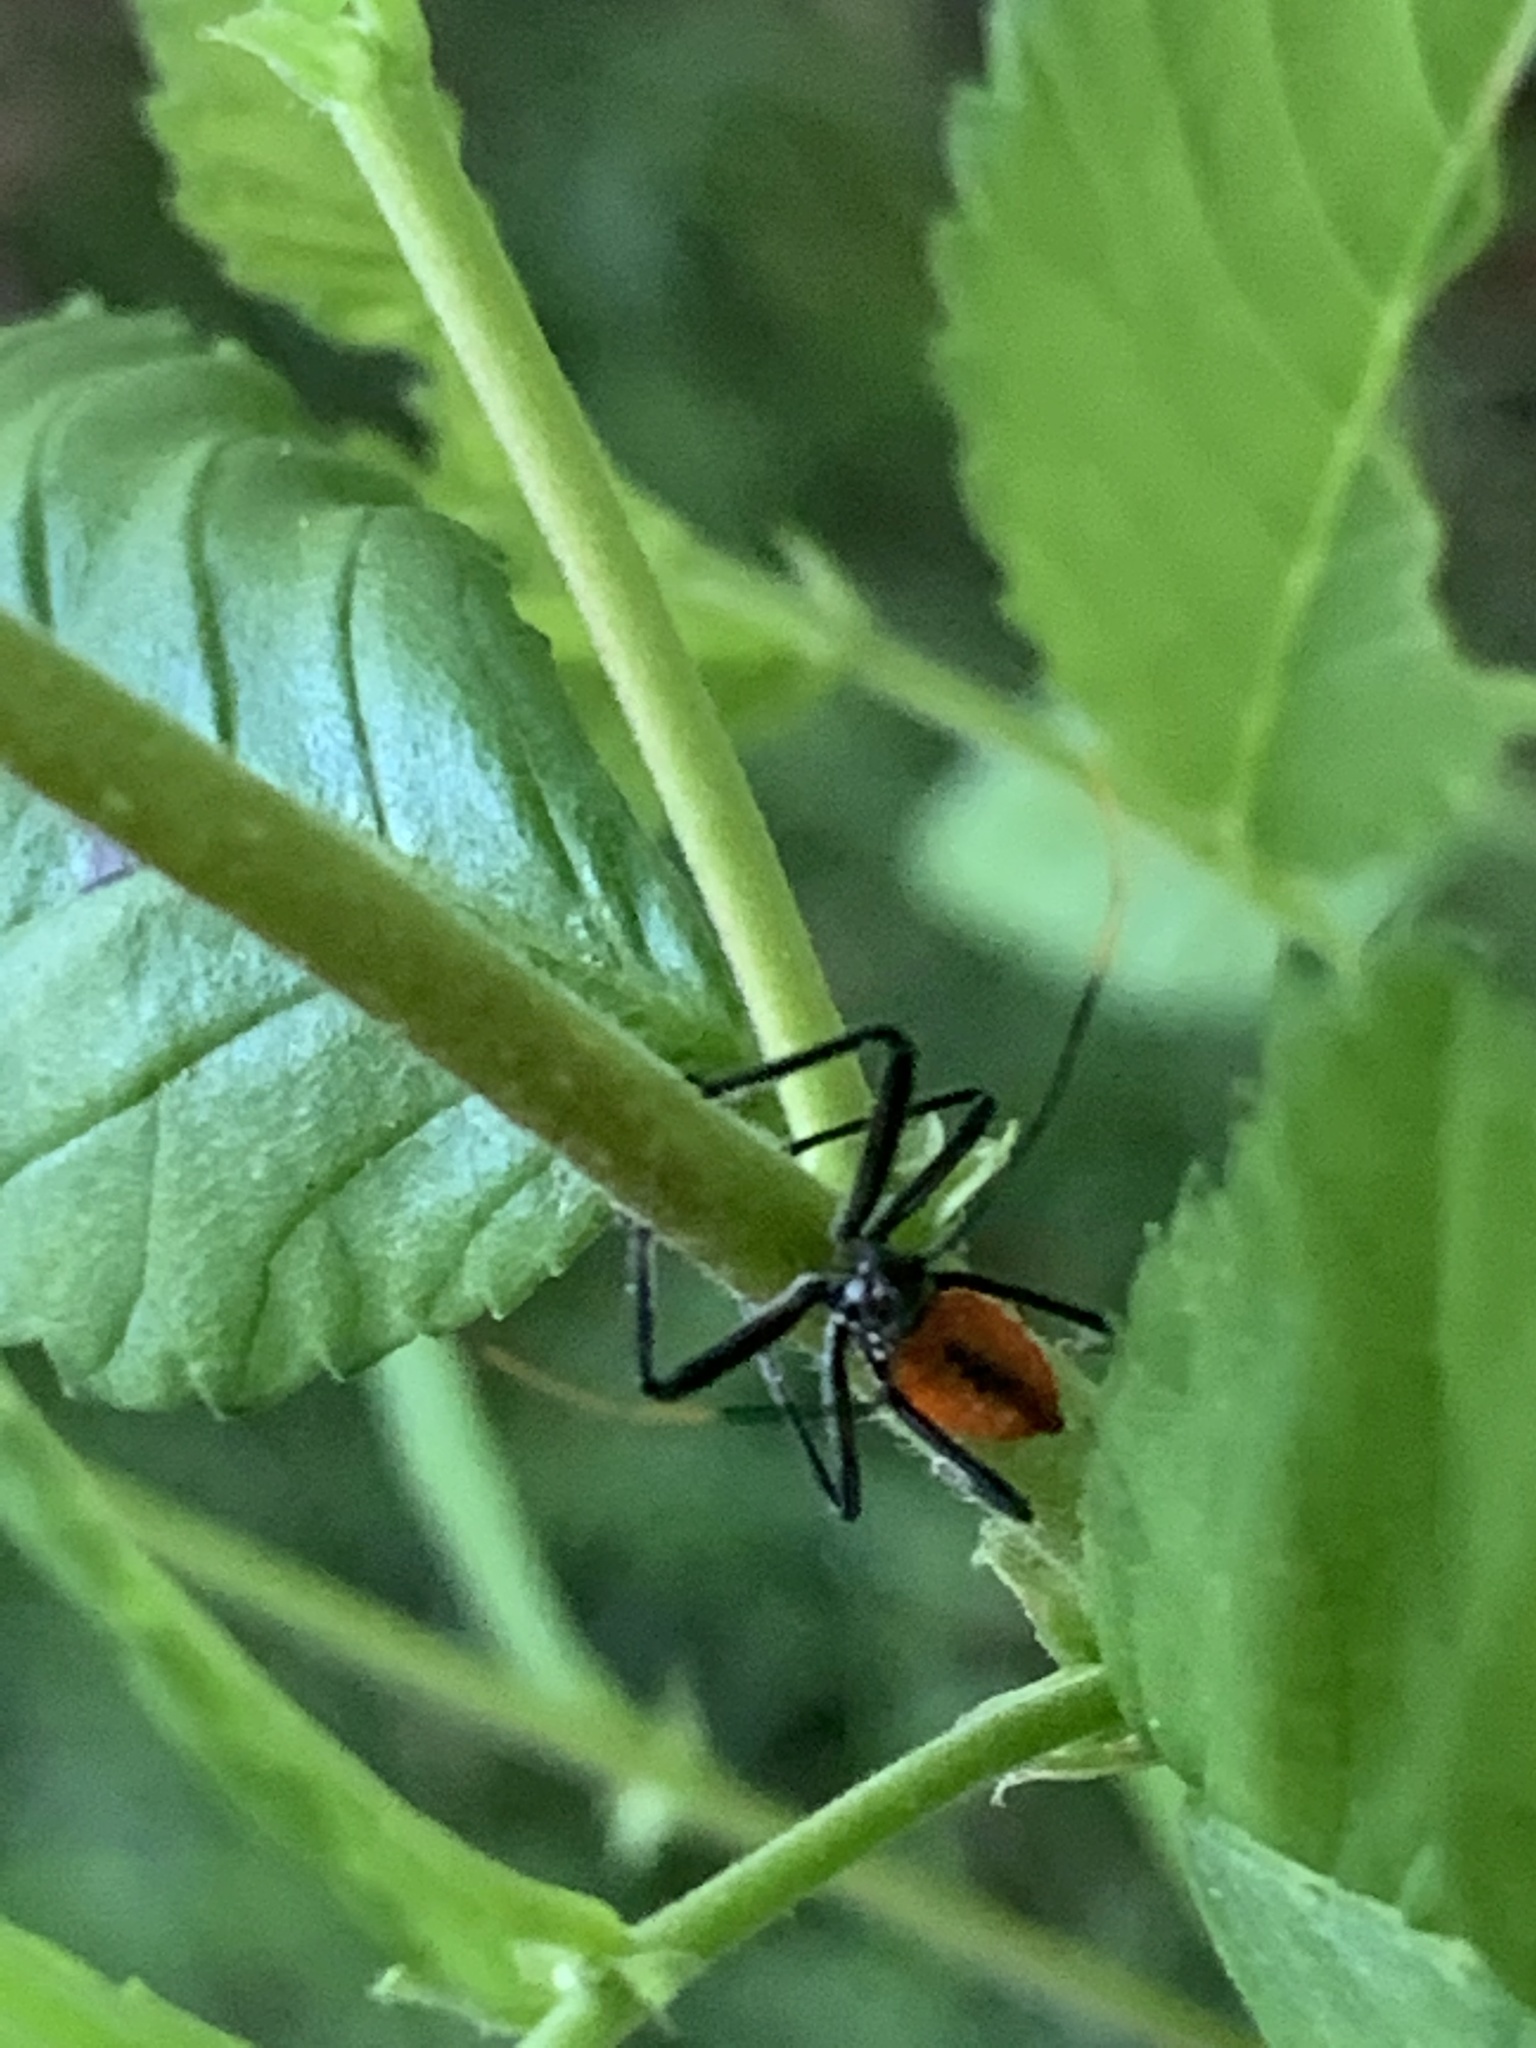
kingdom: Animalia
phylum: Arthropoda
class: Insecta
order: Hemiptera
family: Reduviidae
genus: Arilus
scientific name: Arilus cristatus
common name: North american wheel bug
